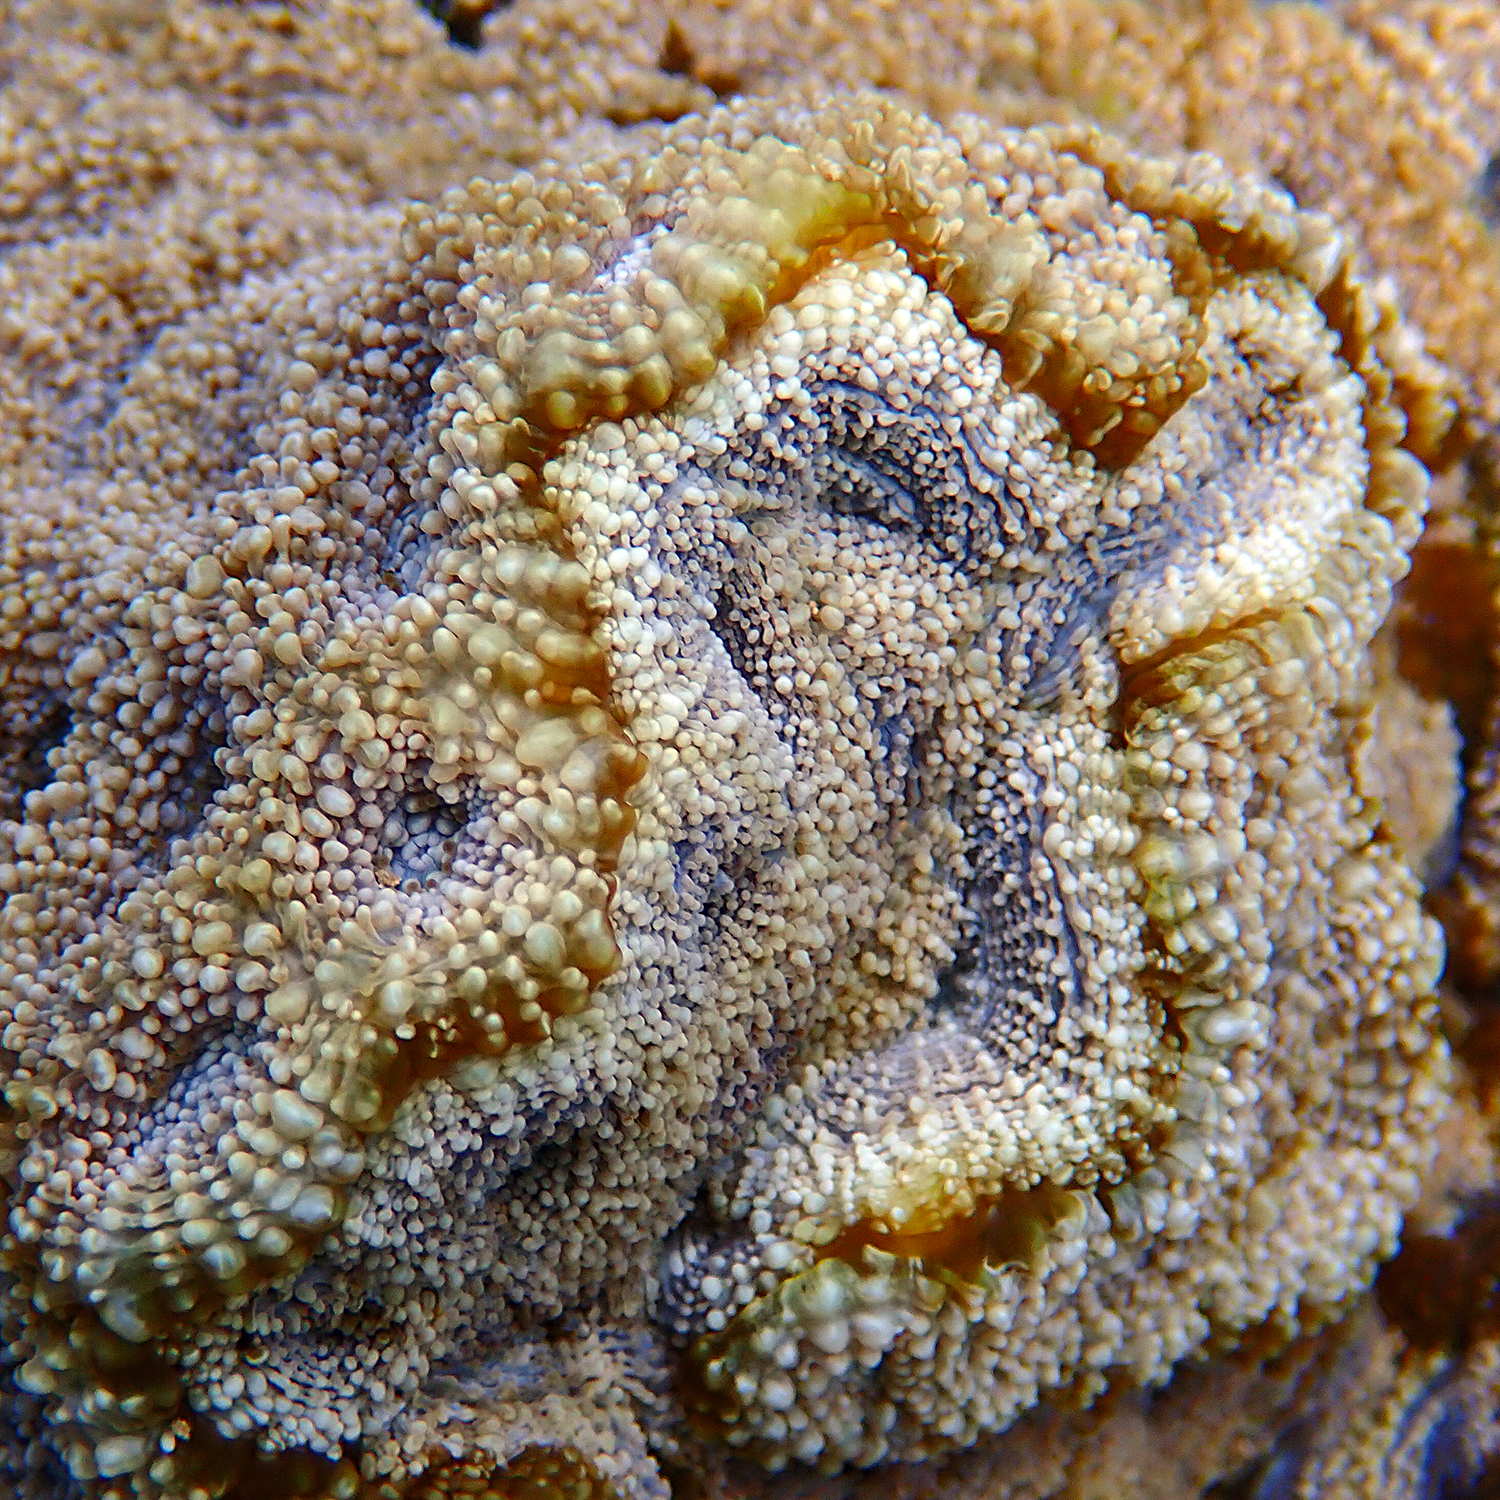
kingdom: Animalia
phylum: Cnidaria
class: Anthozoa
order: Scleractinia
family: Lobophylliidae
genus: Homophyllia
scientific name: Homophyllia bowerbanki
